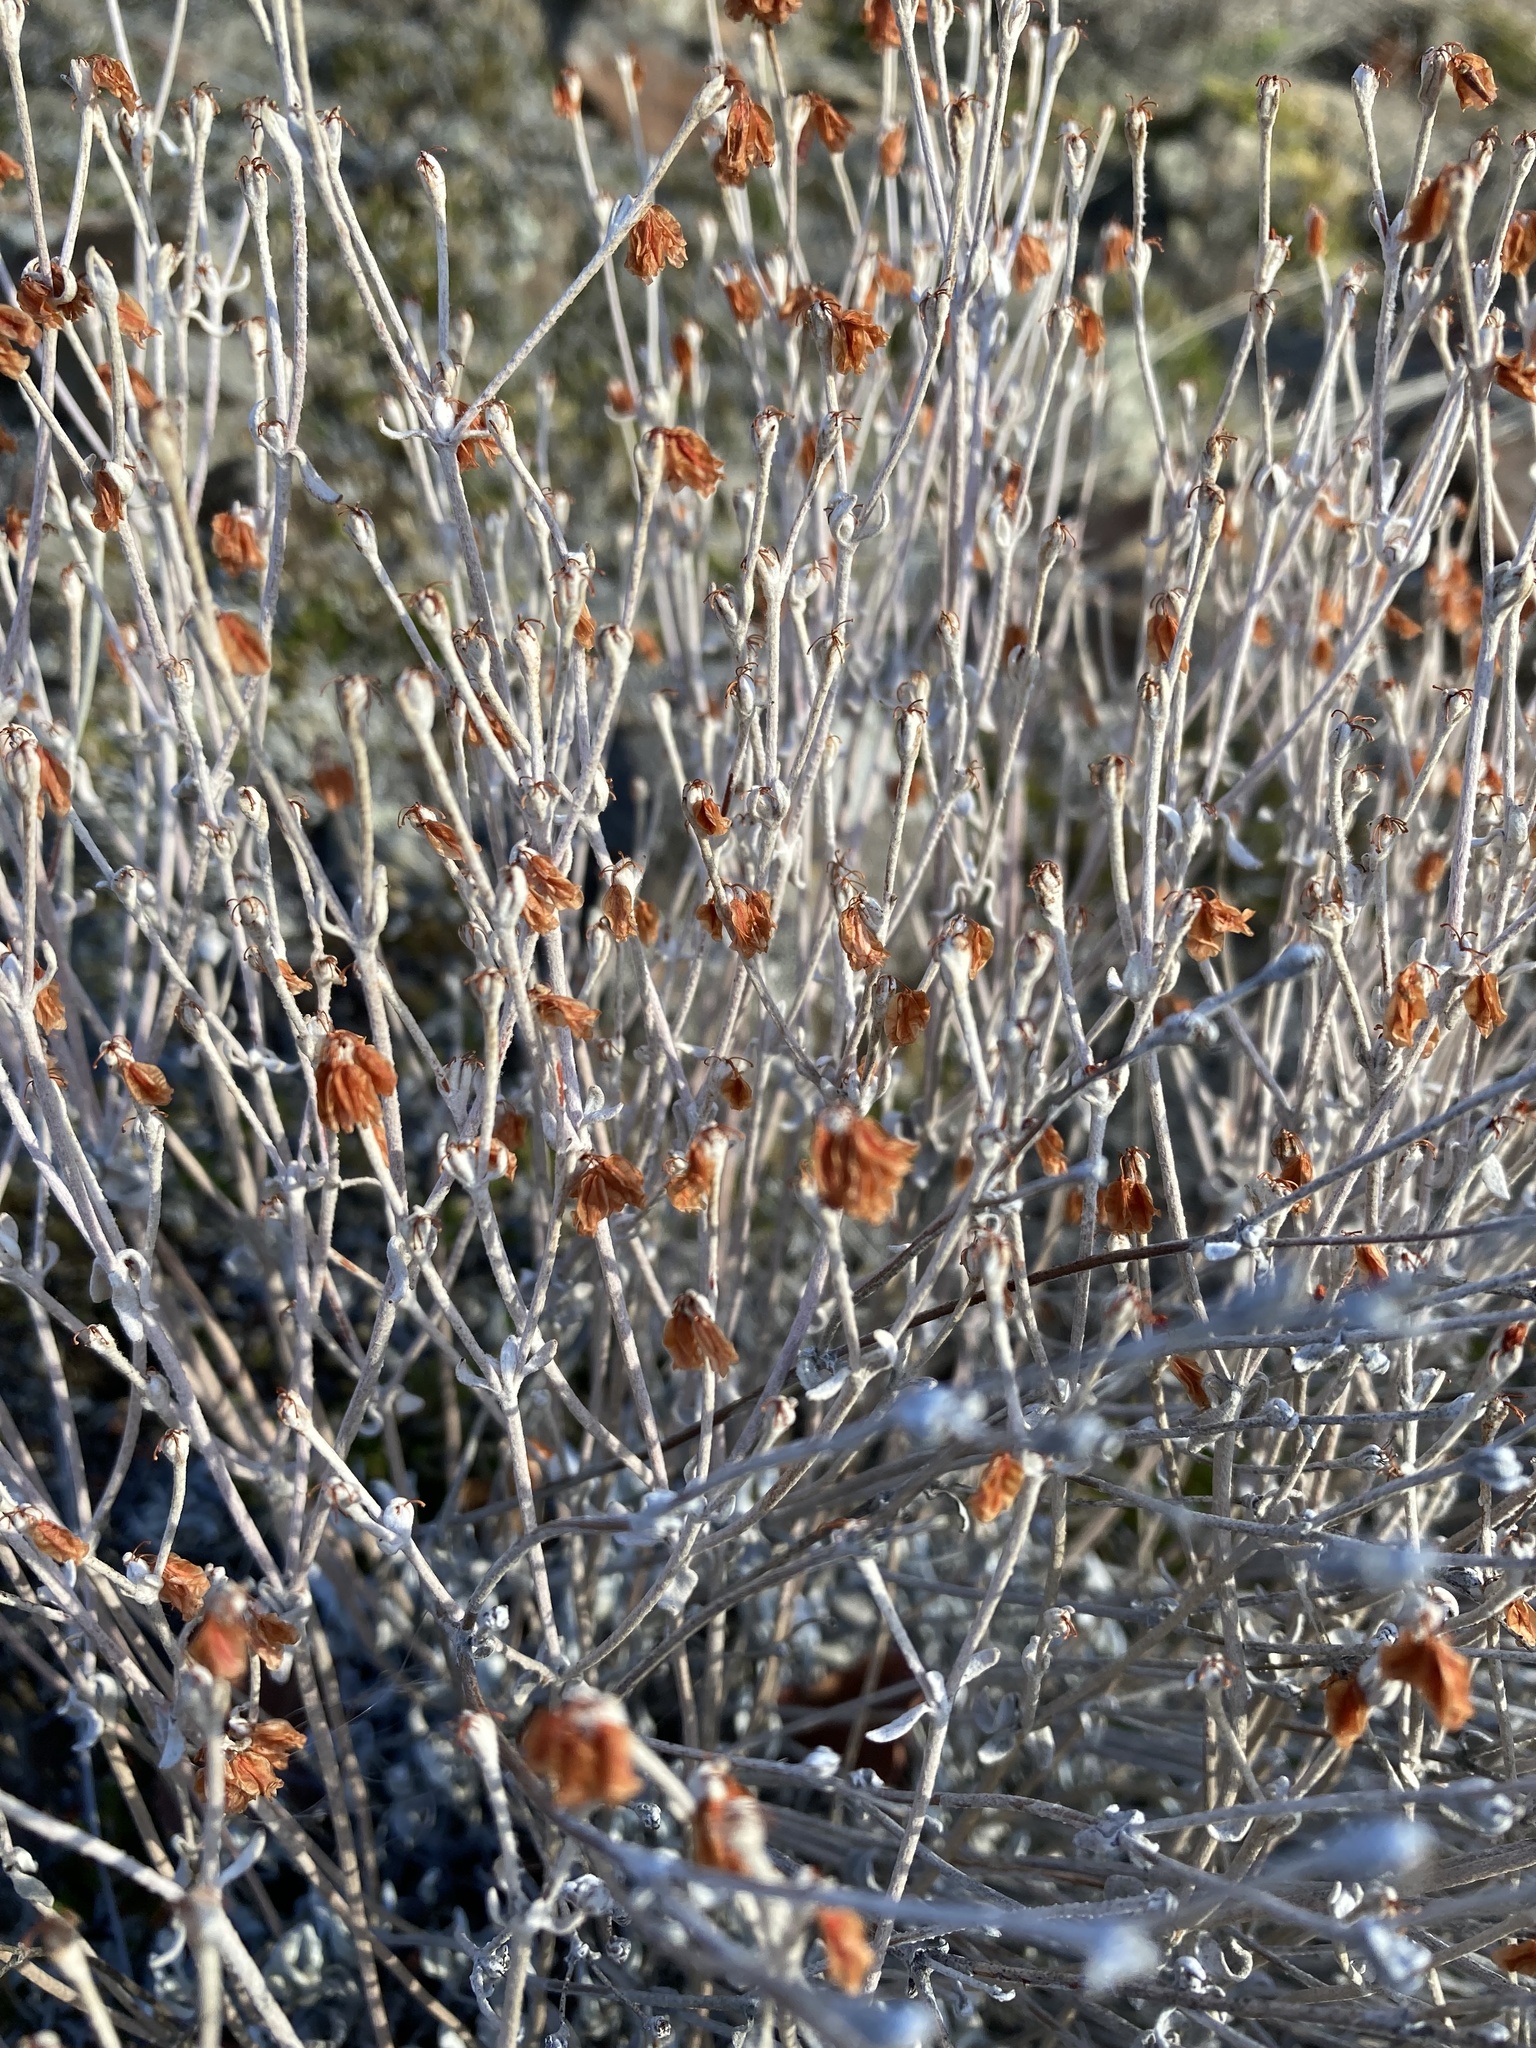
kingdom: Plantae
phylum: Tracheophyta
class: Magnoliopsida
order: Caryophyllales
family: Polygonaceae
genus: Eriogonum
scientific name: Eriogonum niveum
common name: Snow wild buckwheat
